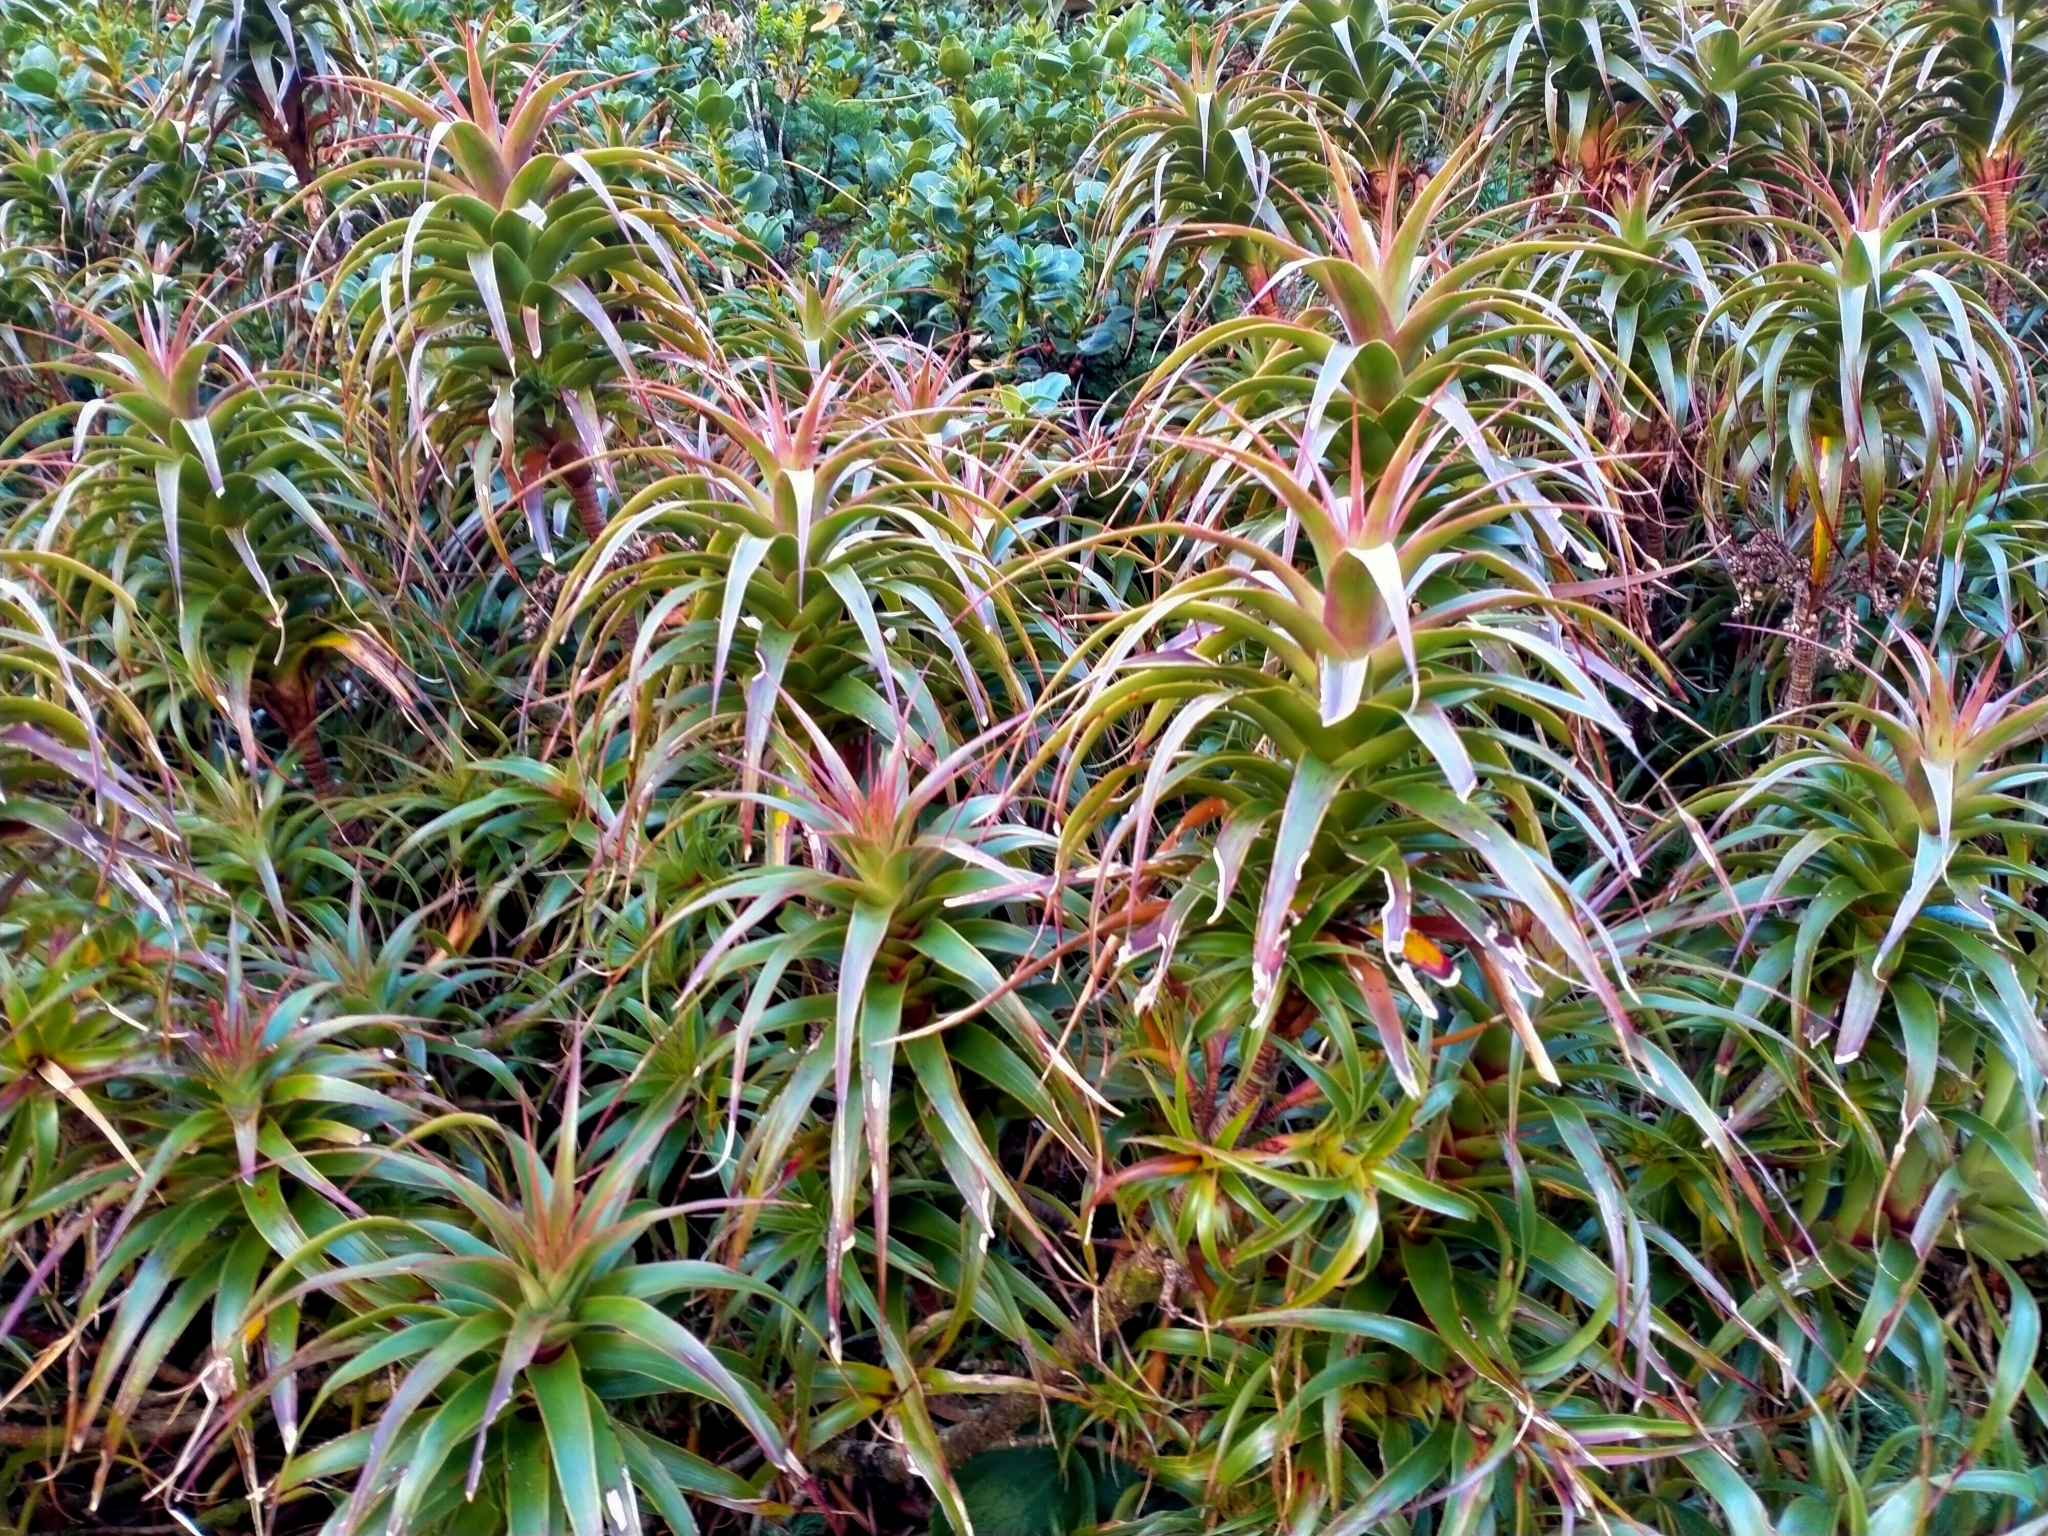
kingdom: Plantae
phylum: Tracheophyta
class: Magnoliopsida
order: Ericales
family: Ericaceae
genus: Dracophyllum
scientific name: Dracophyllum menziesii
